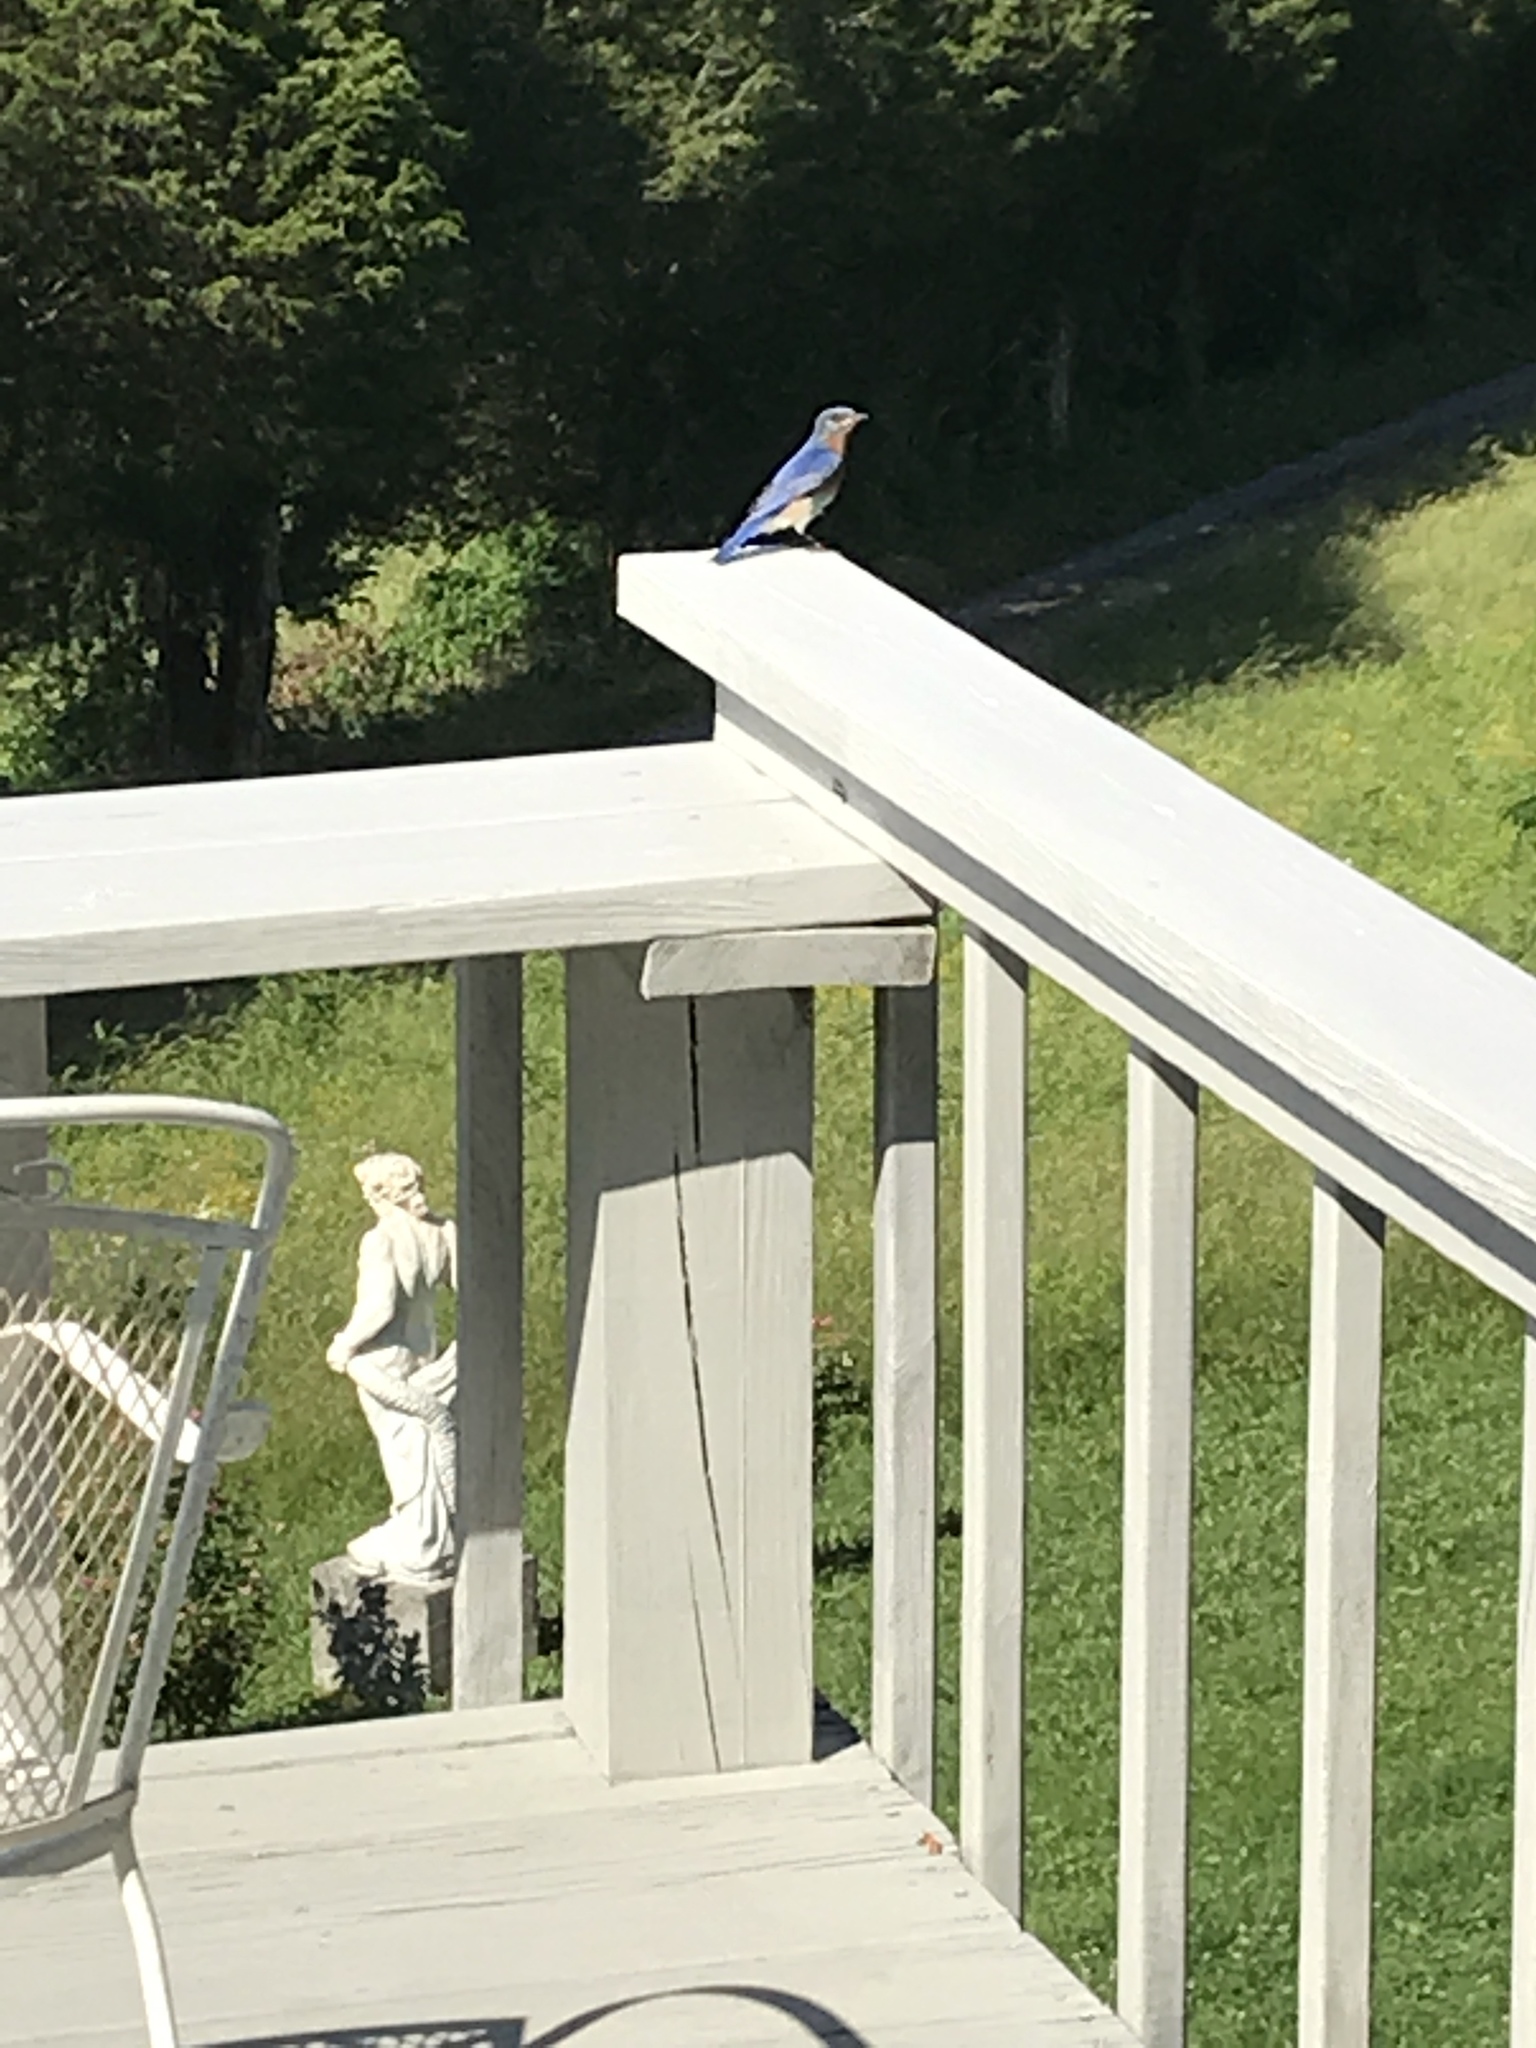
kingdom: Animalia
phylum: Chordata
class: Aves
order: Passeriformes
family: Turdidae
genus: Sialia
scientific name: Sialia sialis
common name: Eastern bluebird
